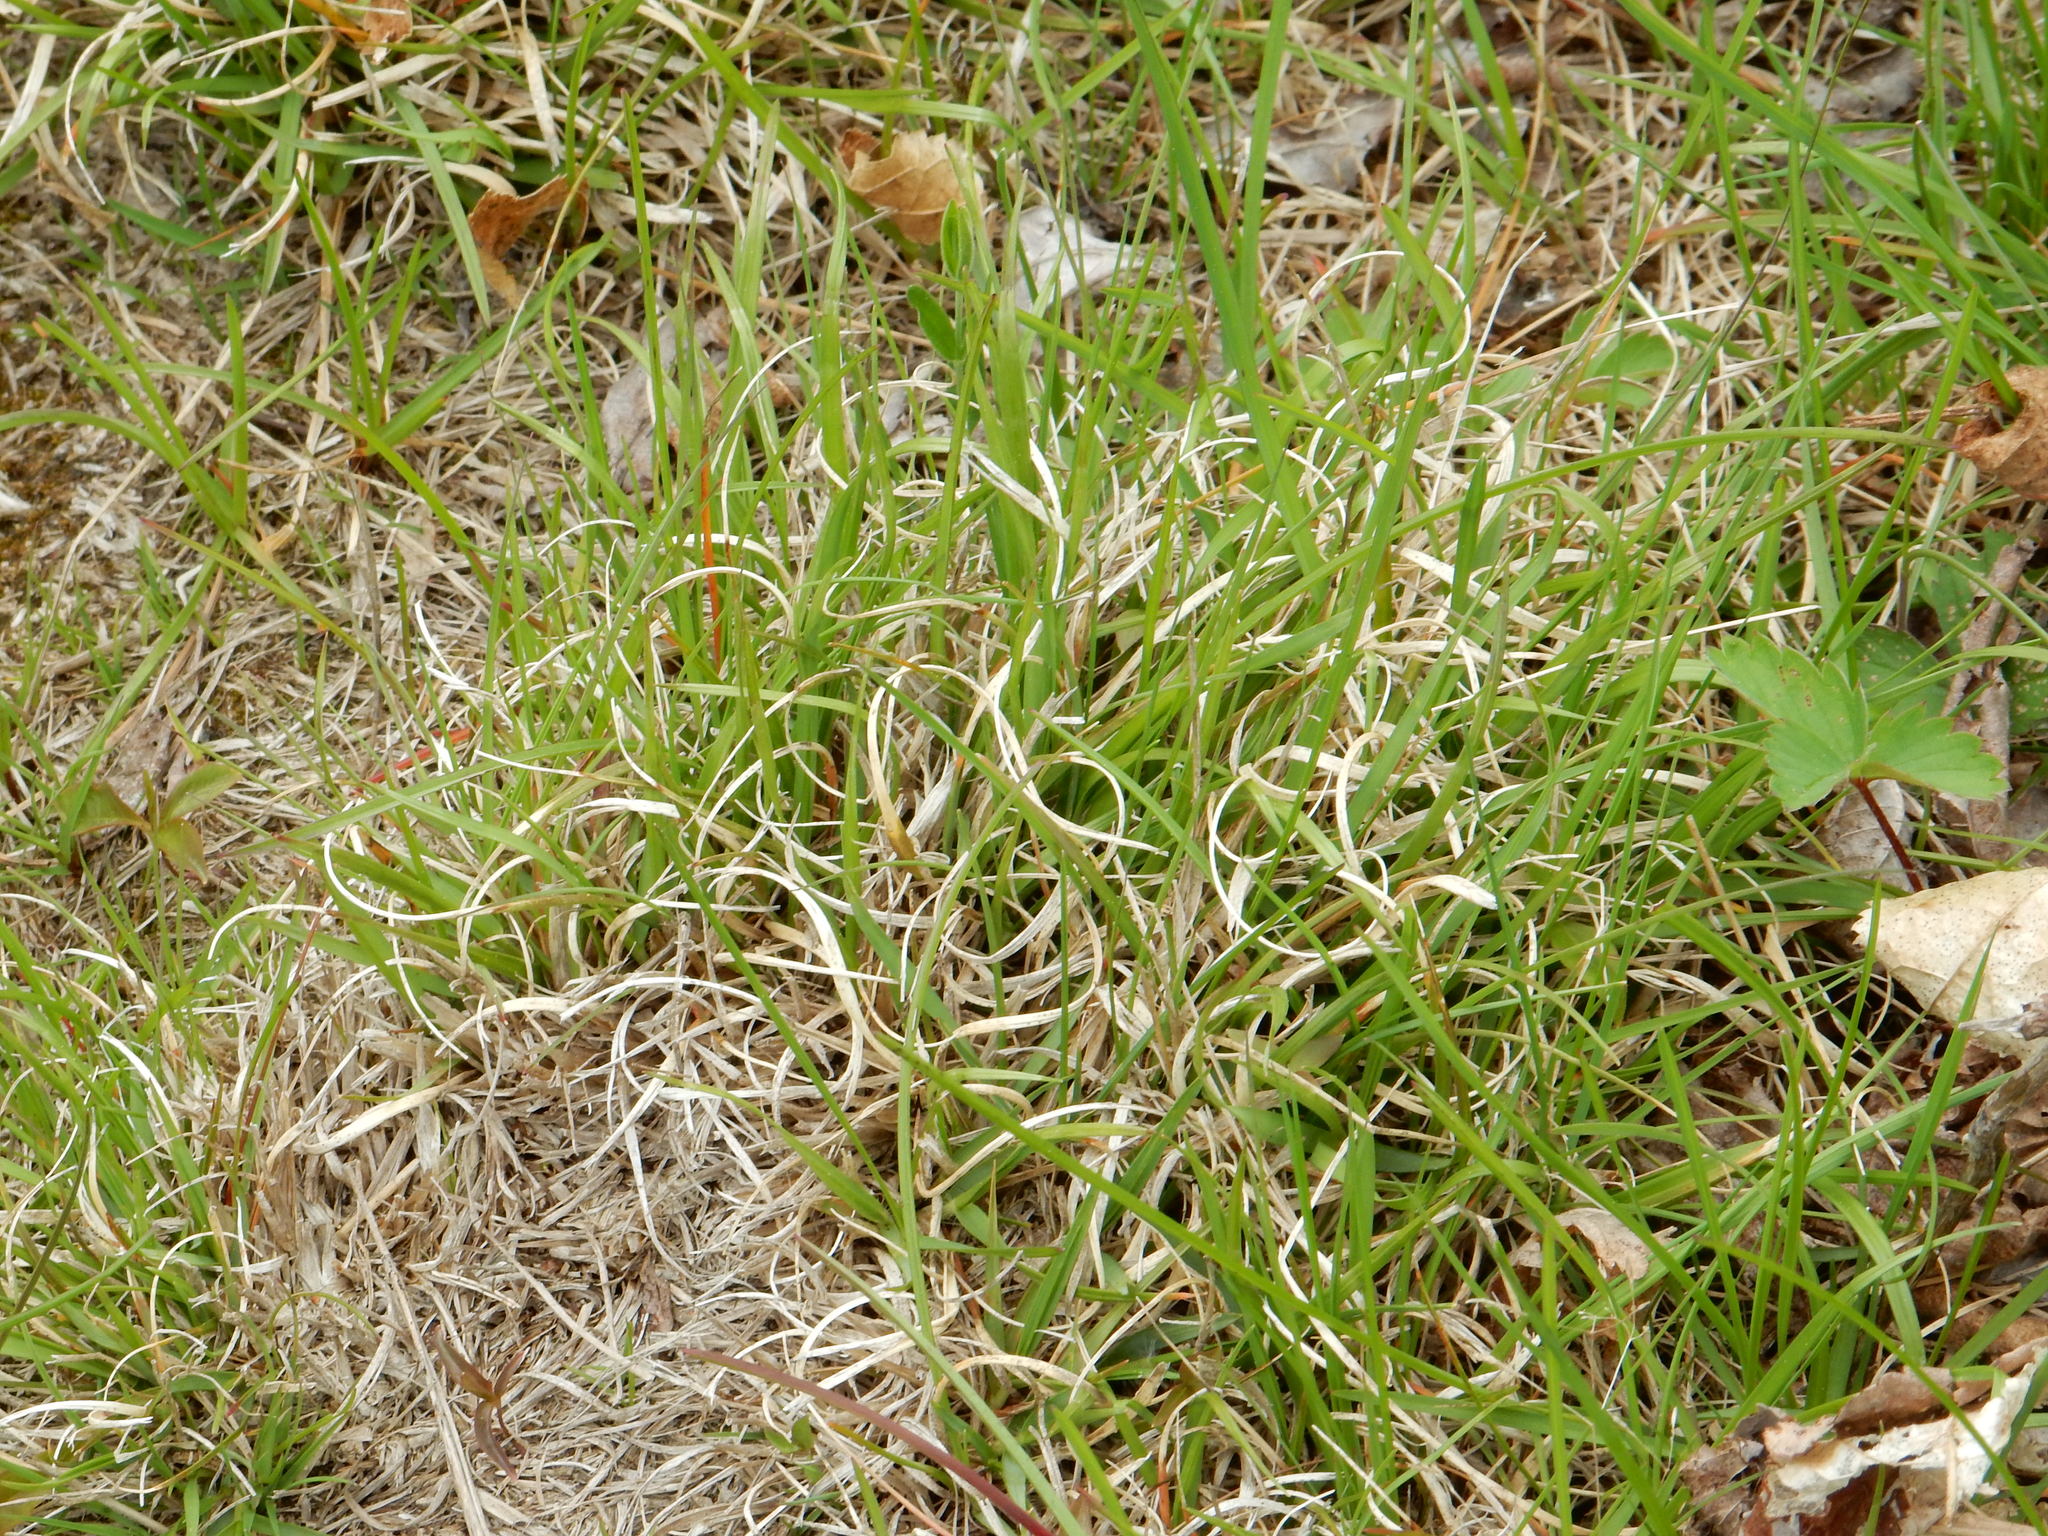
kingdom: Plantae
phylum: Tracheophyta
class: Liliopsida
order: Poales
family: Poaceae
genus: Danthonia
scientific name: Danthonia spicata
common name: Common wild oatgrass
